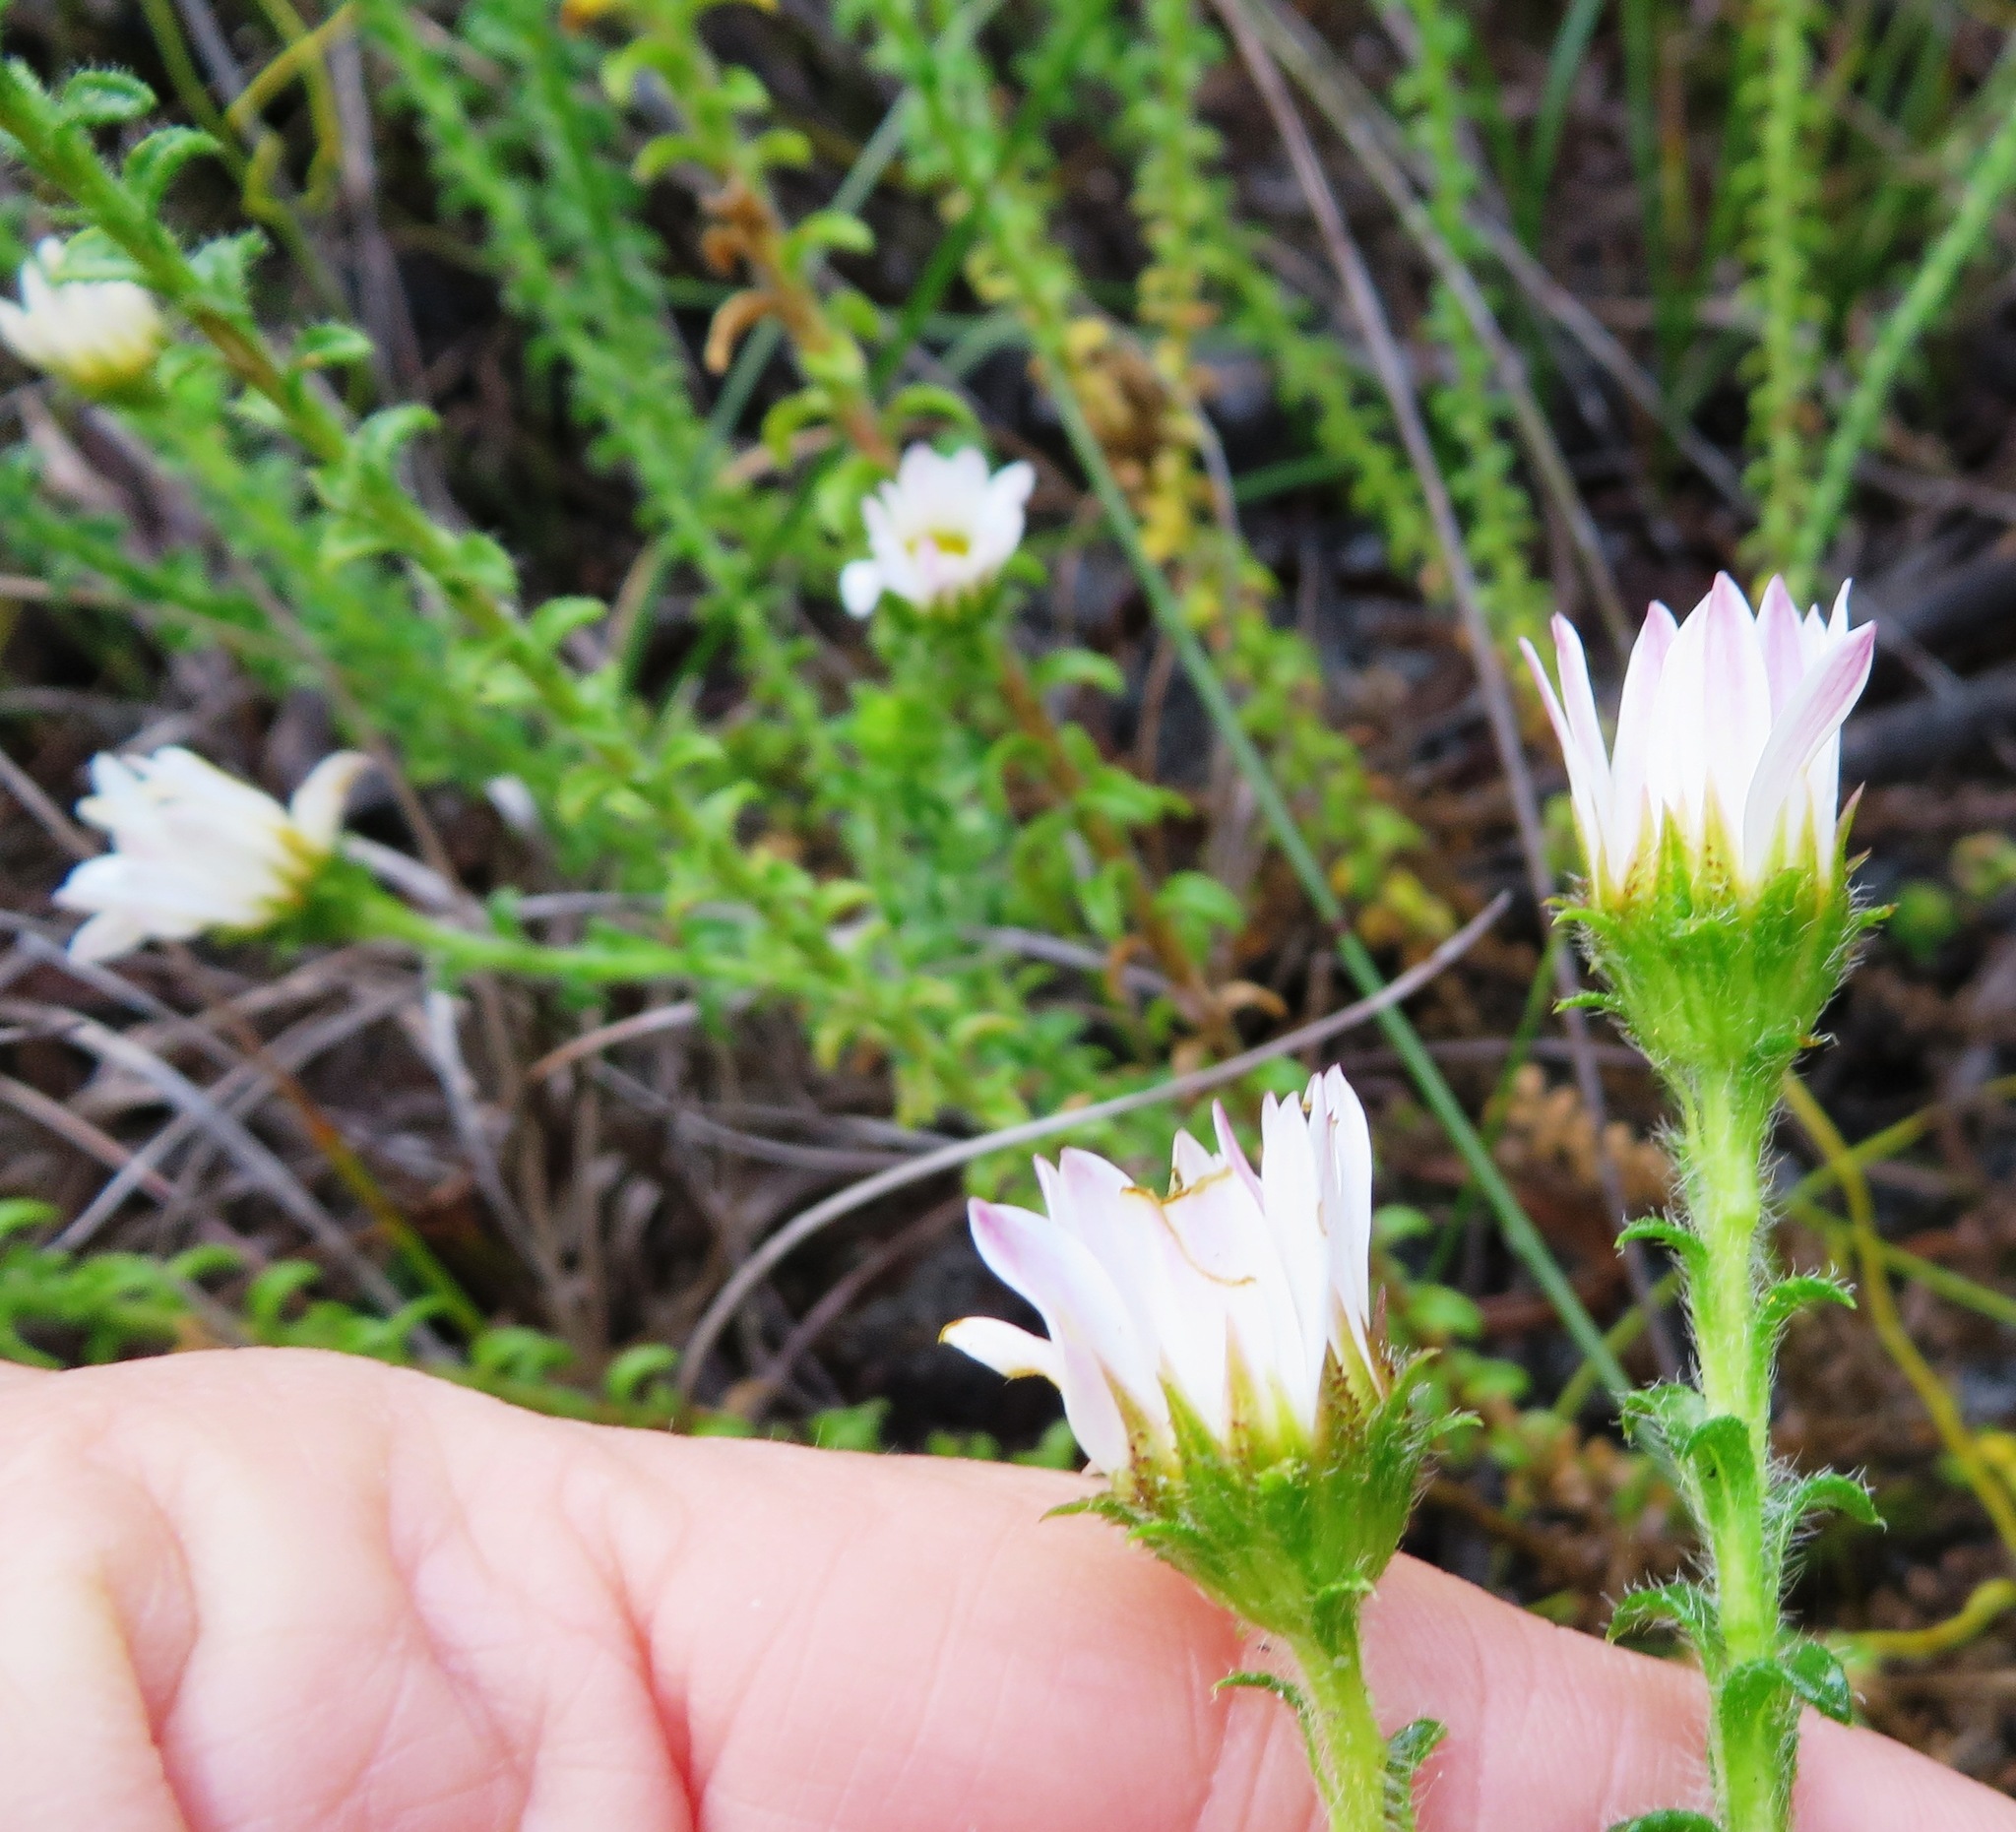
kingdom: Plantae
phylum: Tracheophyta
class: Magnoliopsida
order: Asterales
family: Asteraceae
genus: Felicia
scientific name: Felicia echinata
